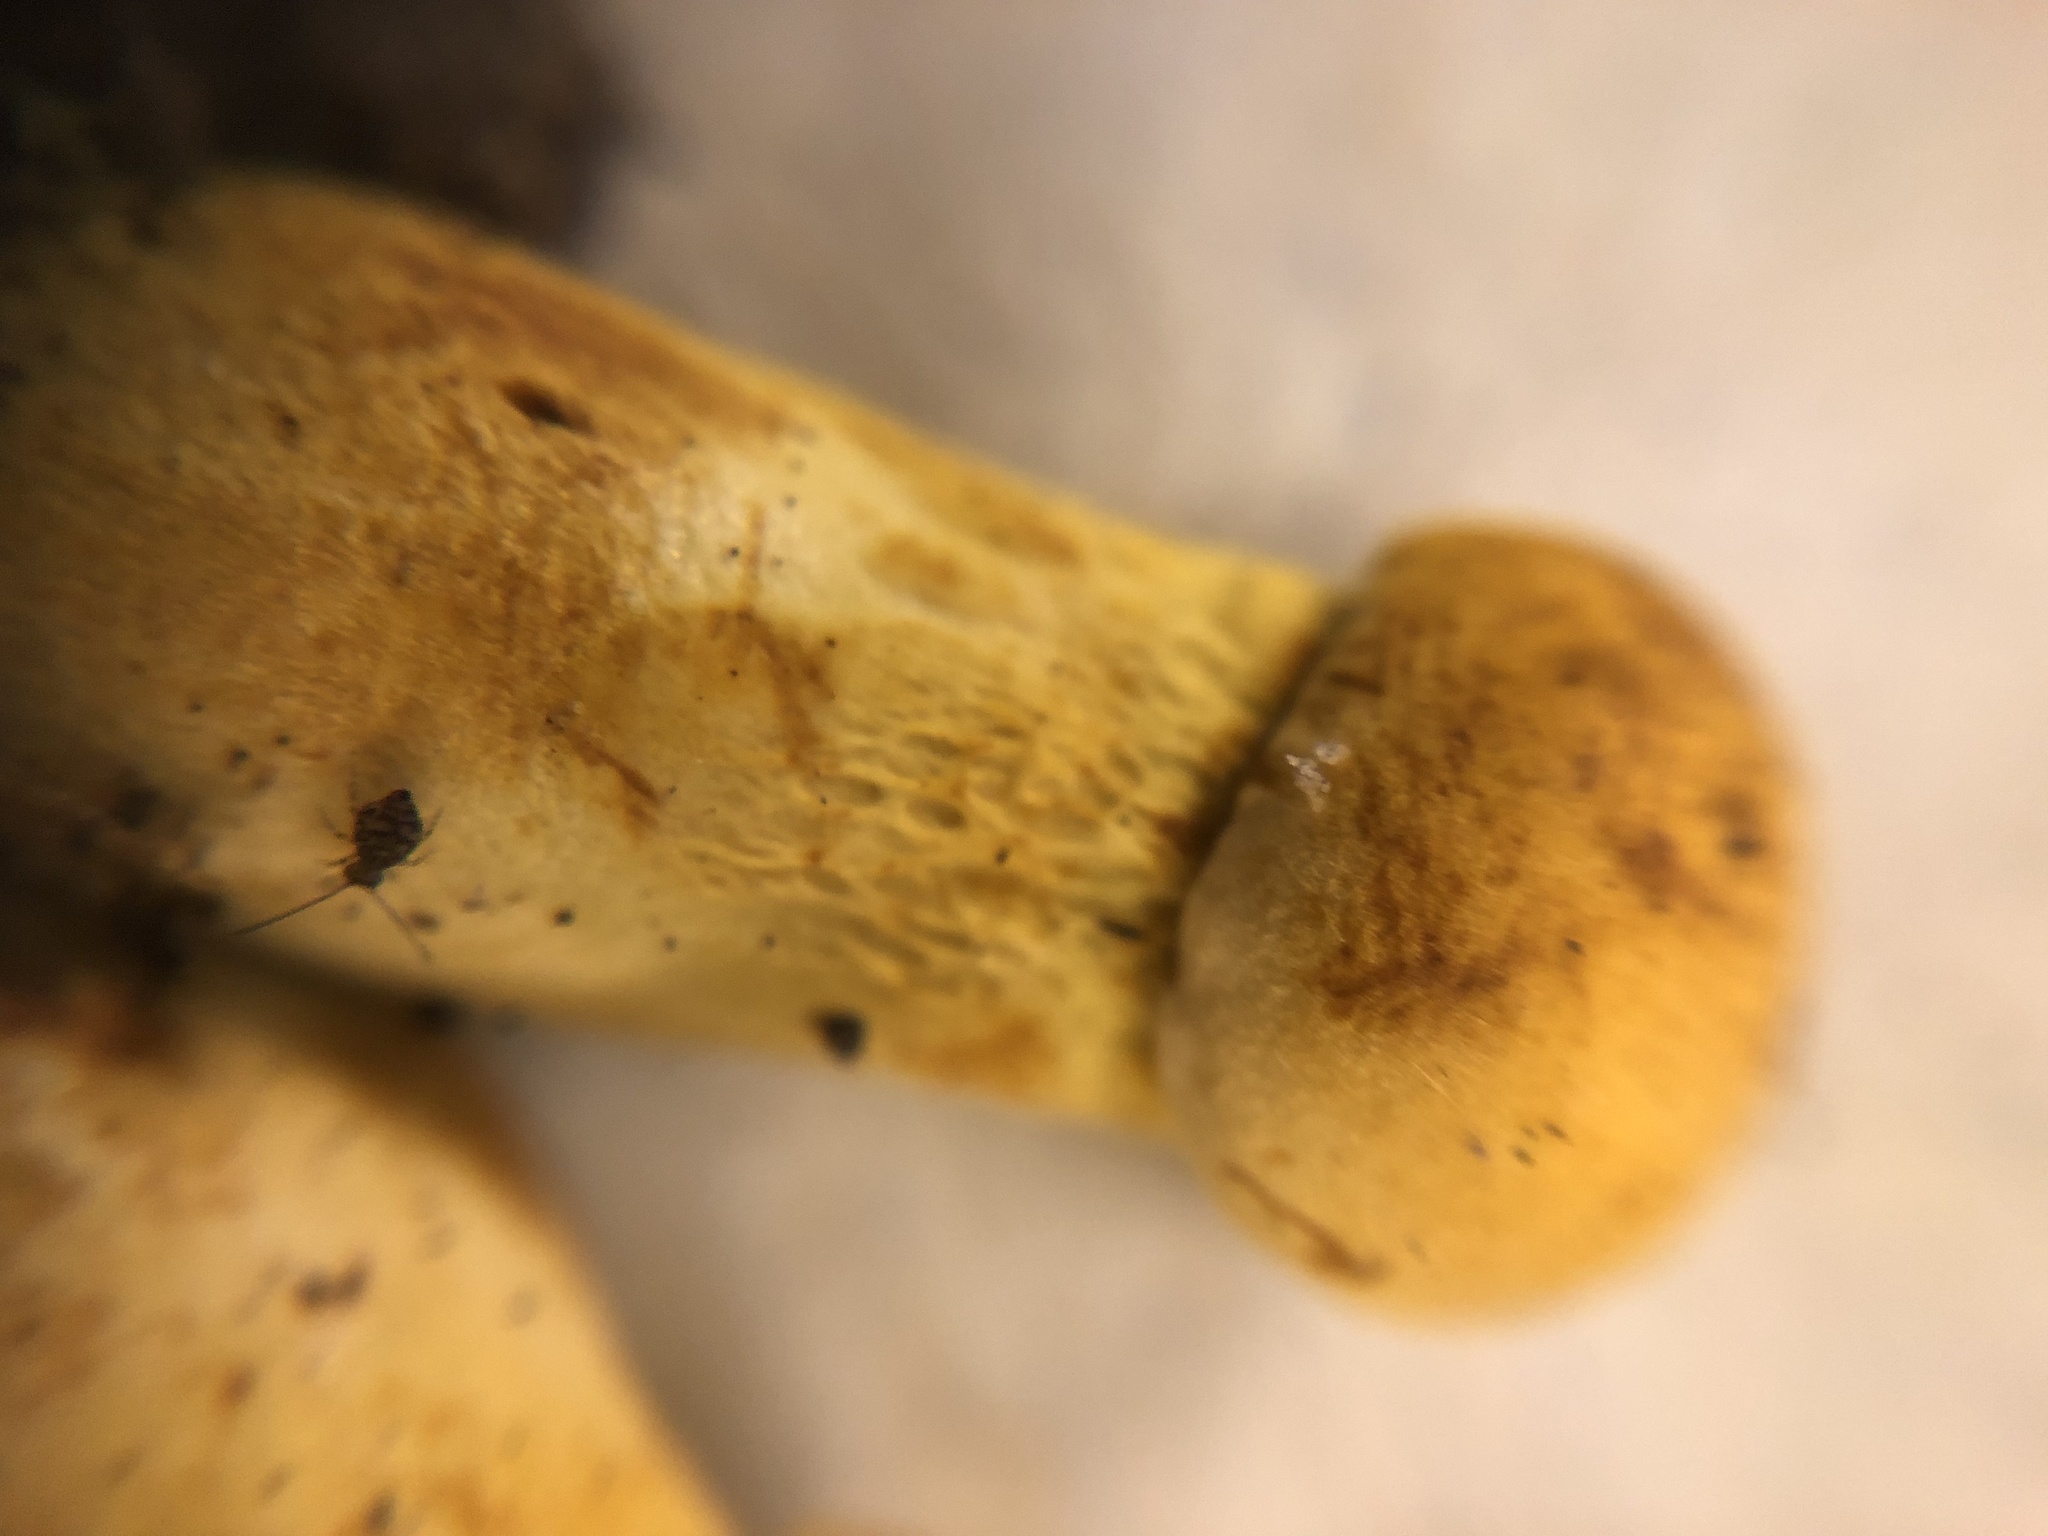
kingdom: Fungi
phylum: Basidiomycota
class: Agaricomycetes
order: Boletales
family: Boletaceae
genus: Retiboletus
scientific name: Retiboletus ornatipes
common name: Ornate-stalked bolete
